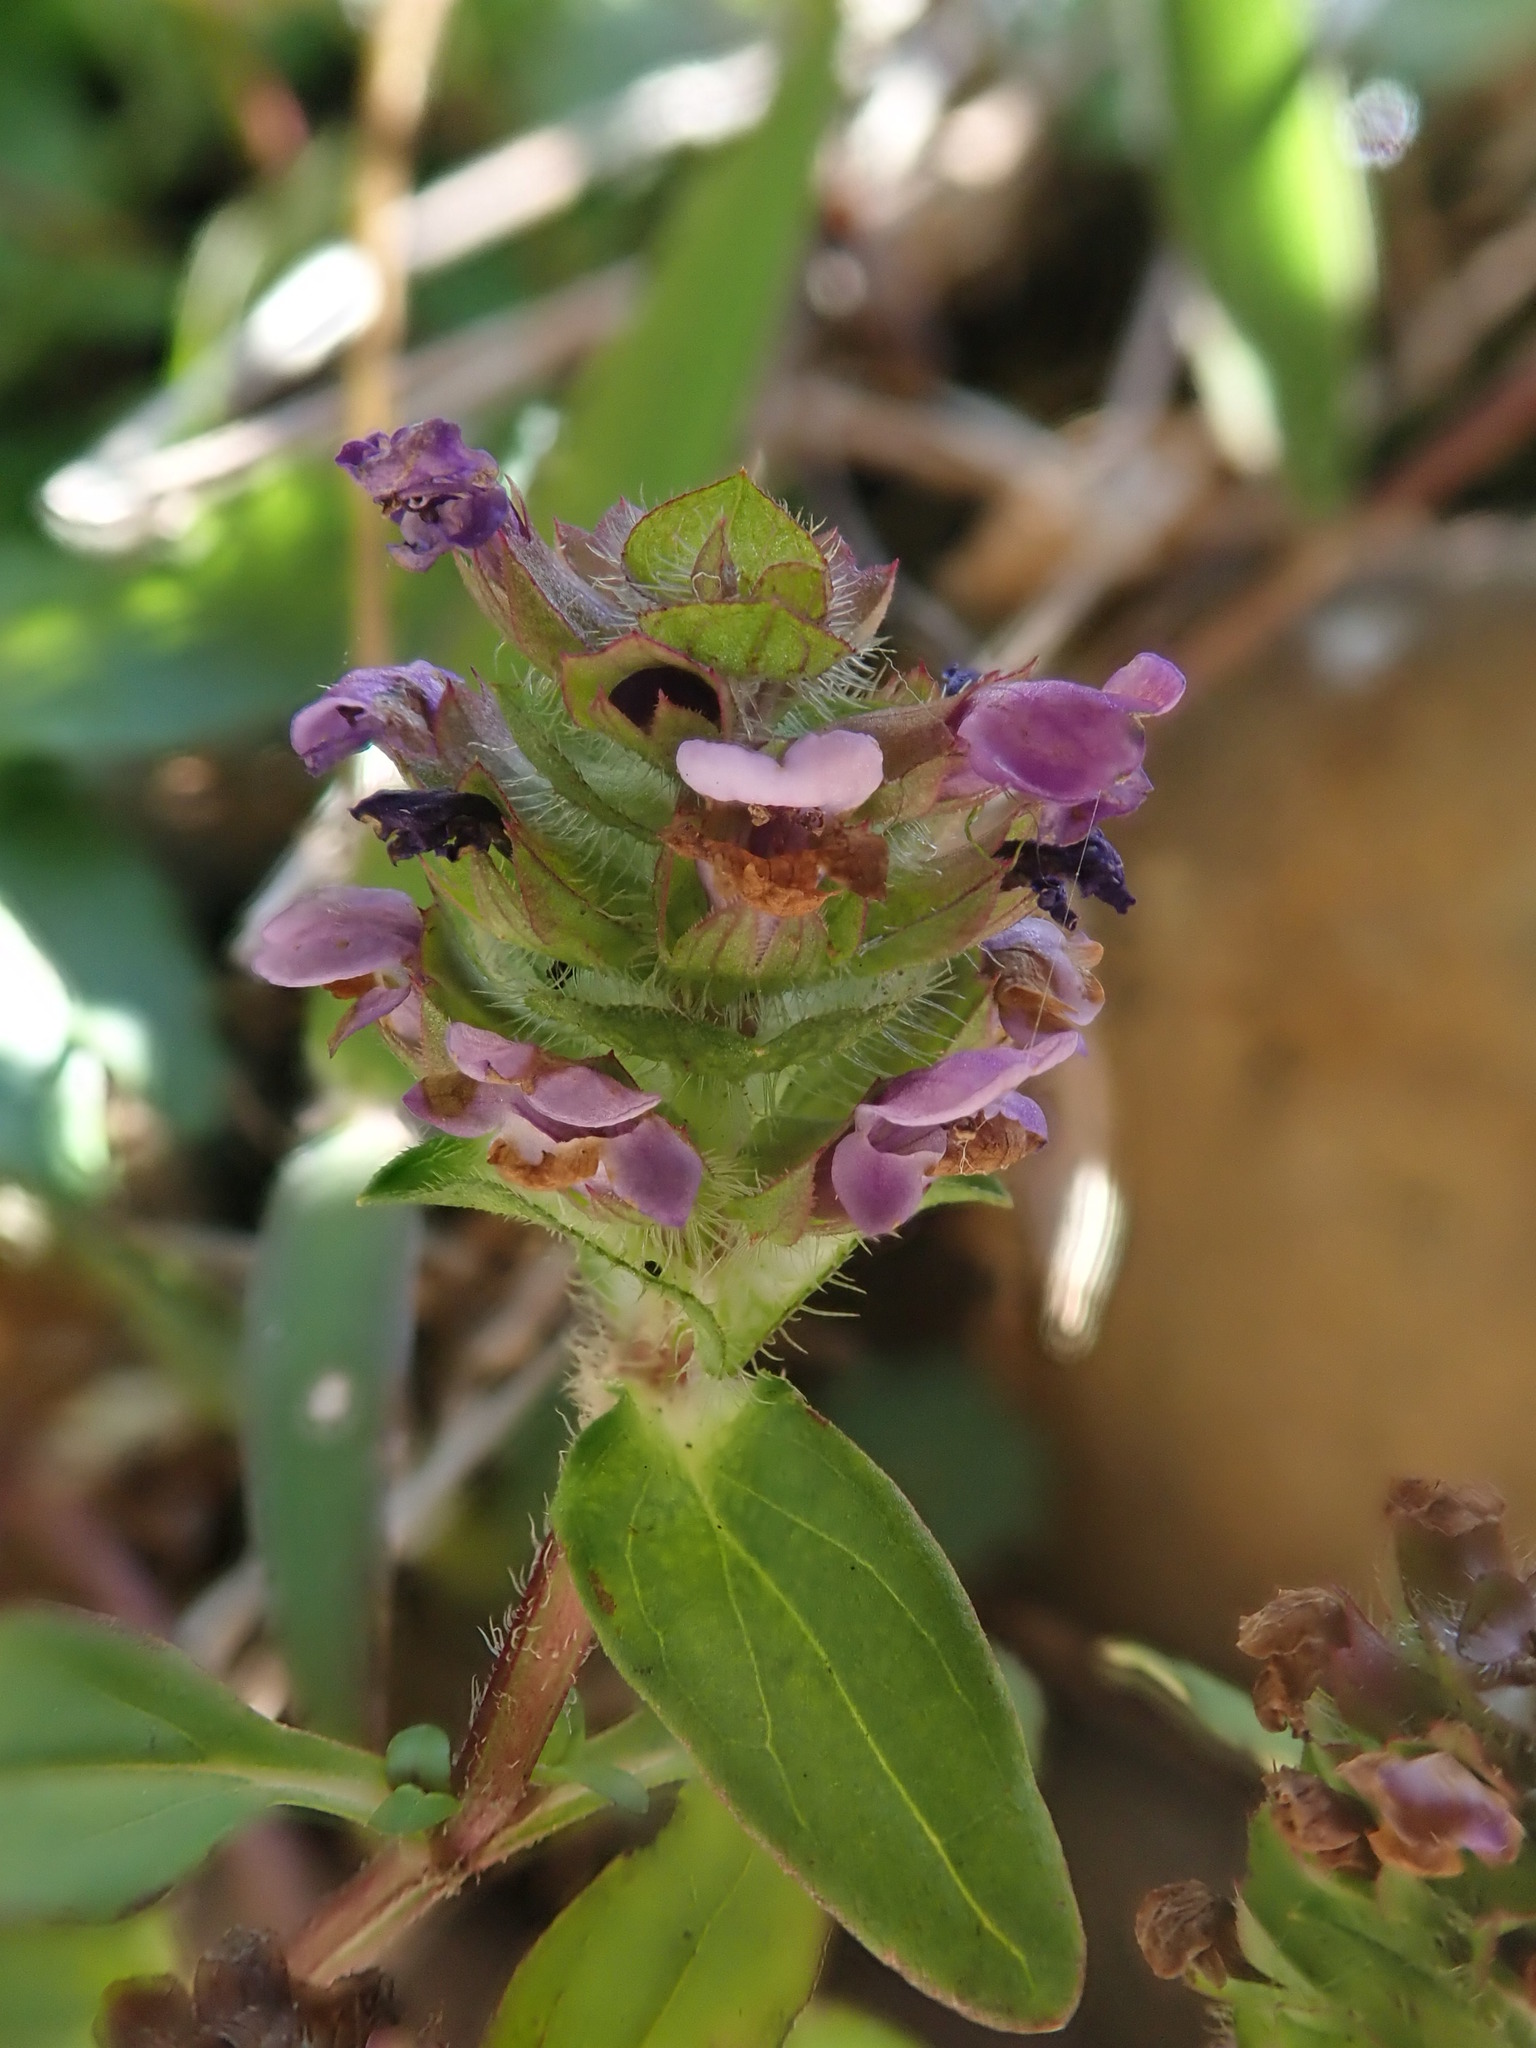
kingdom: Plantae
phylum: Tracheophyta
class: Magnoliopsida
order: Lamiales
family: Lamiaceae
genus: Prunella
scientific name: Prunella vulgaris
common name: Heal-all
